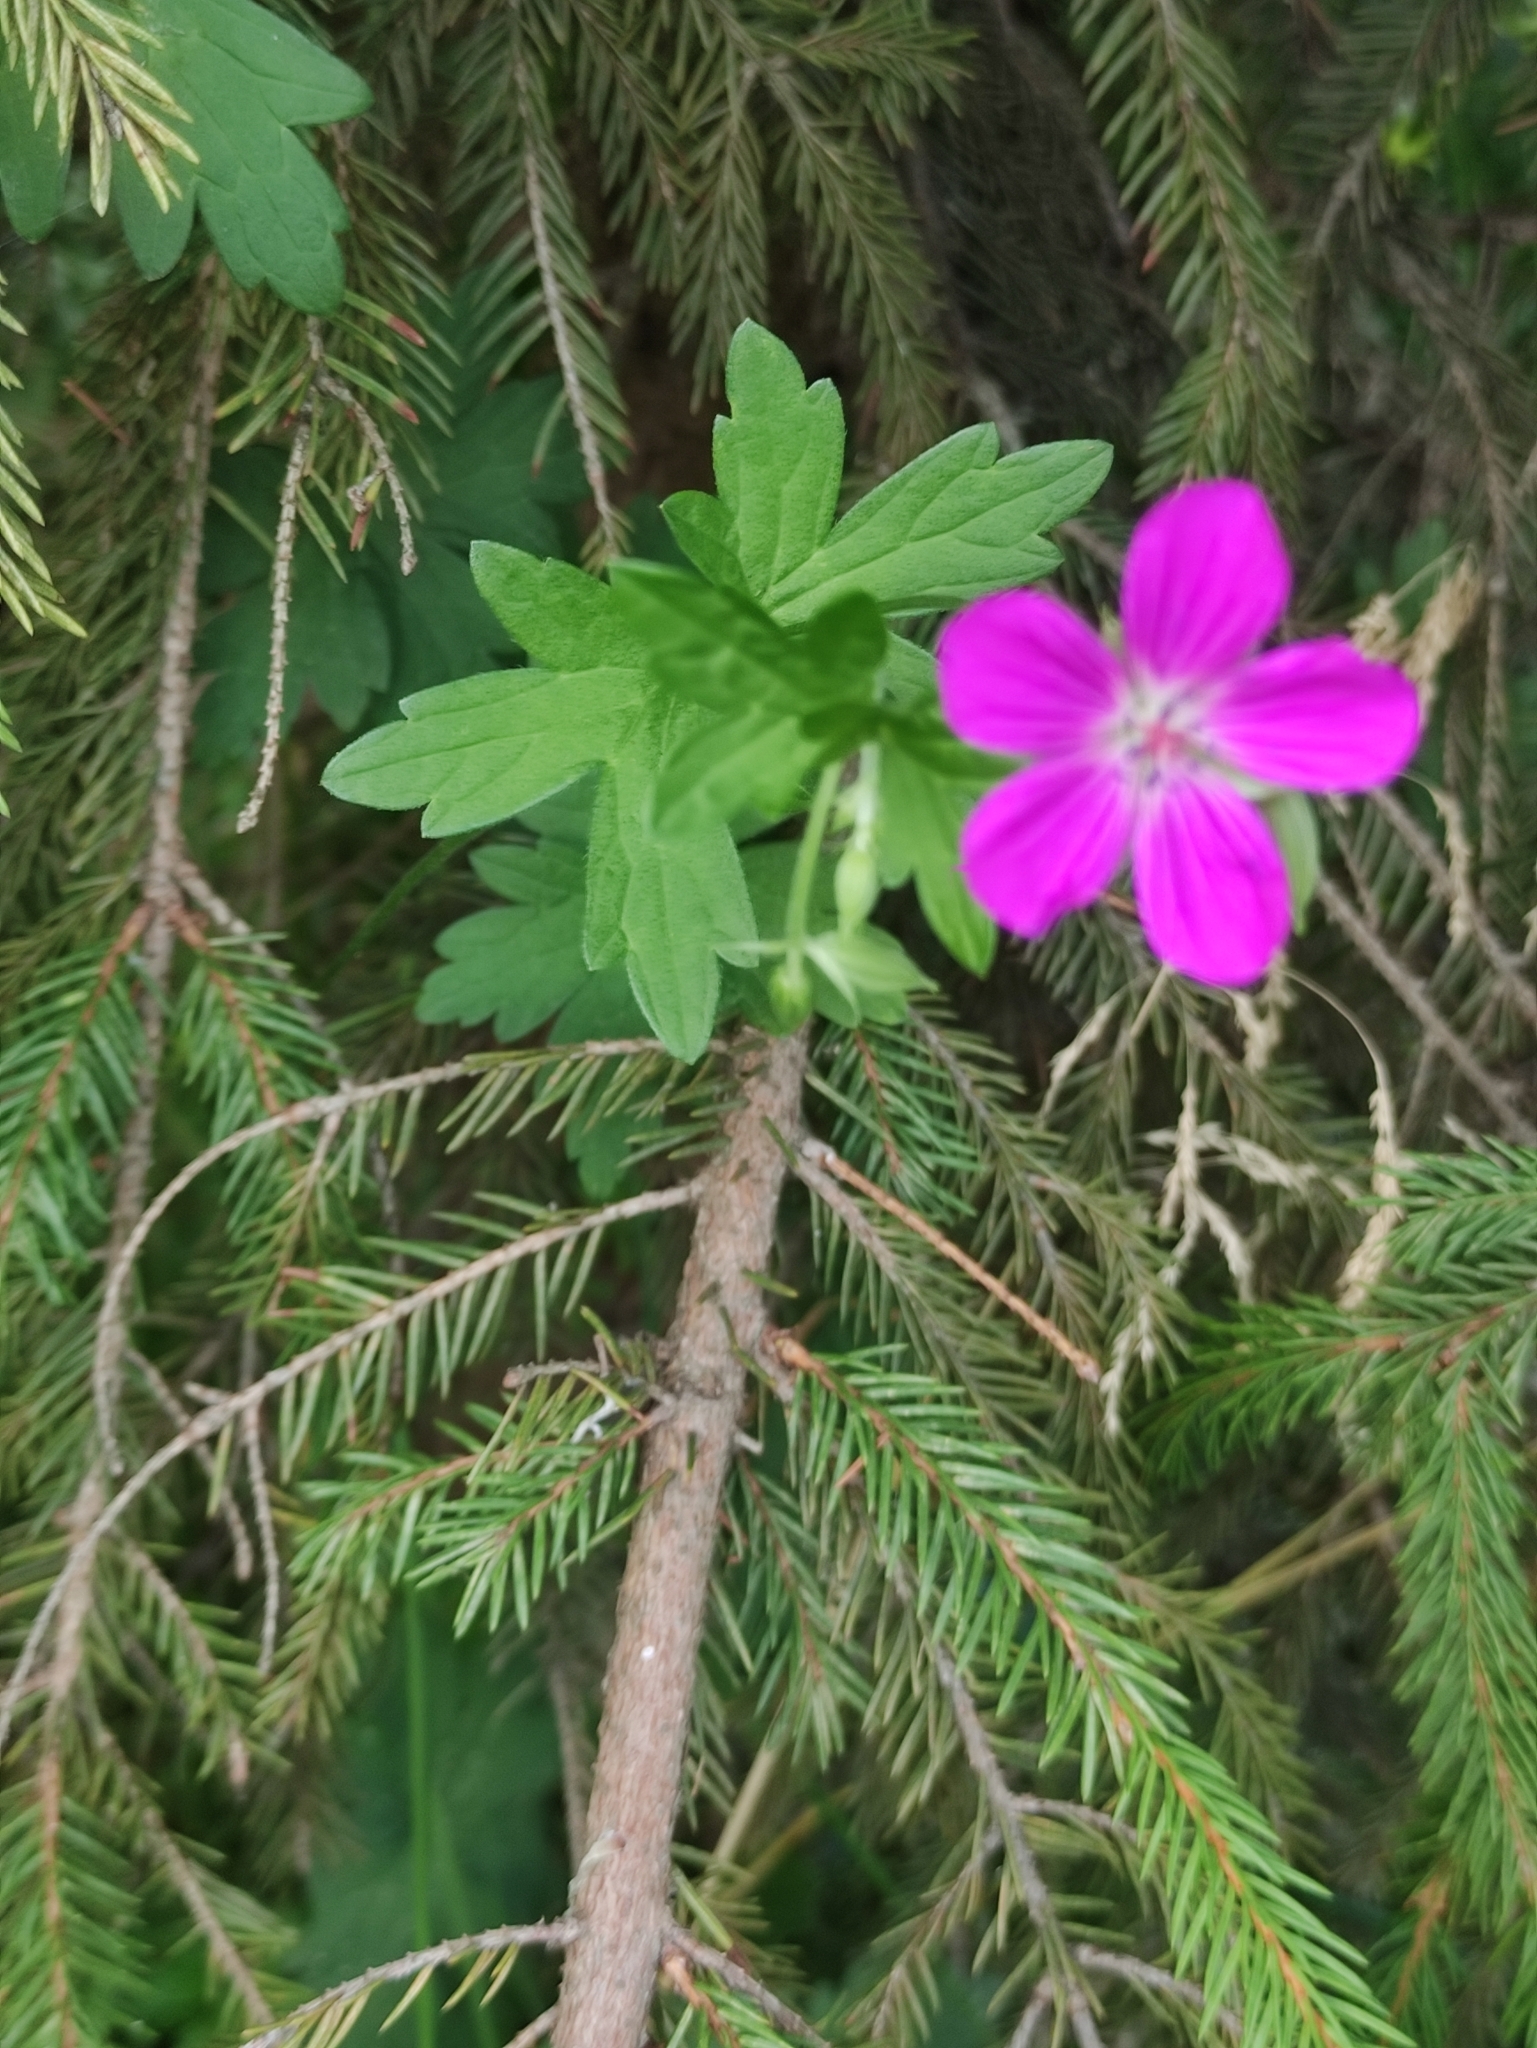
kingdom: Plantae
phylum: Tracheophyta
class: Magnoliopsida
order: Geraniales
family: Geraniaceae
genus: Geranium
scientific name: Geranium palustre
